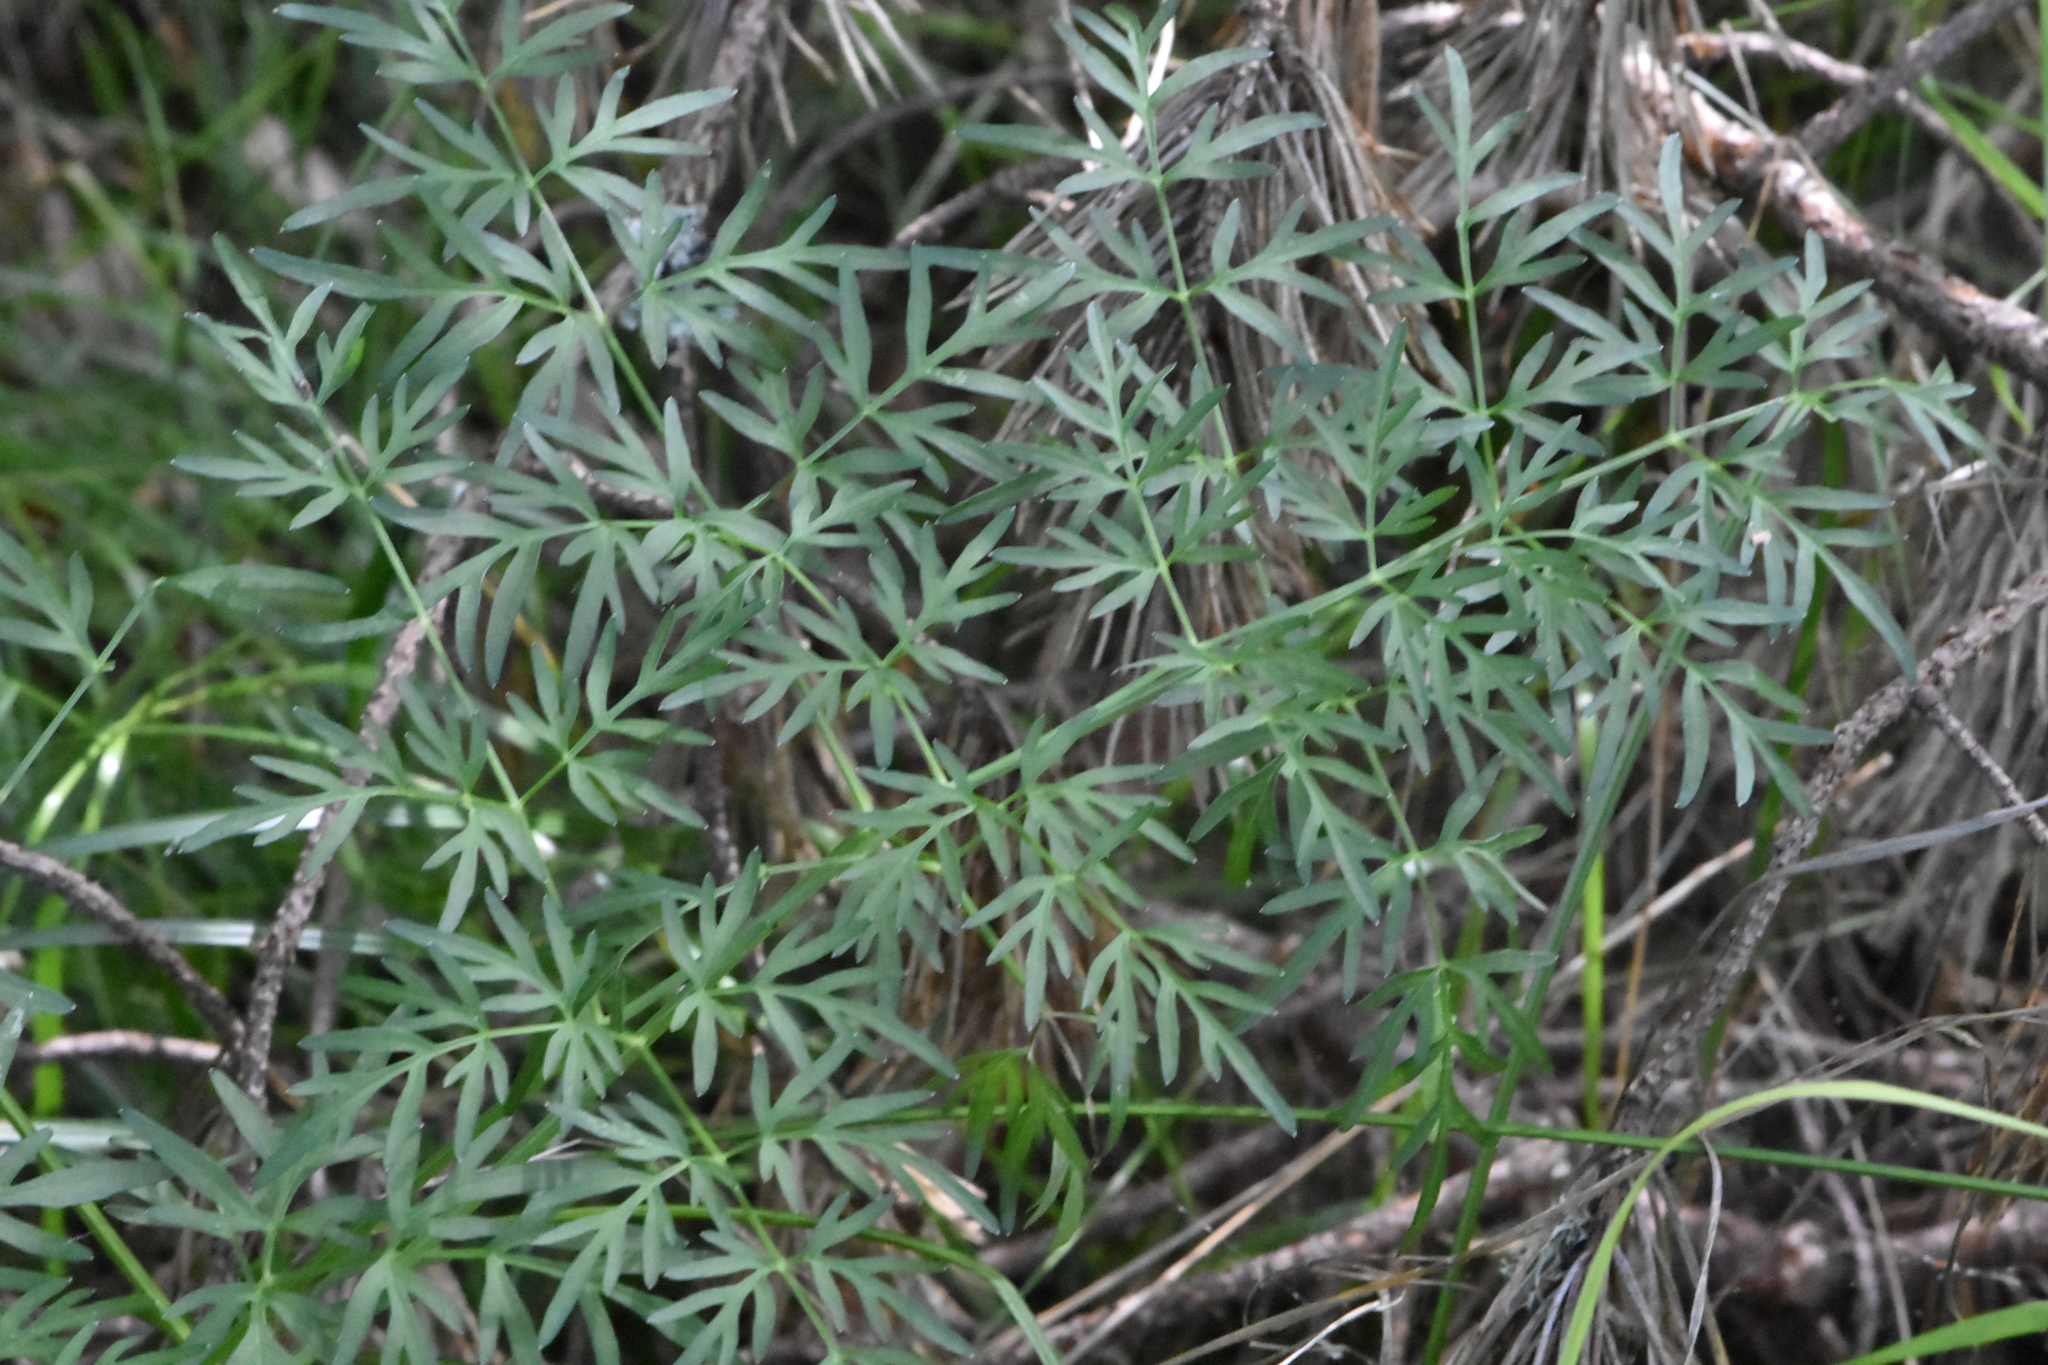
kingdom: Plantae
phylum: Tracheophyta
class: Magnoliopsida
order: Apiales
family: Apiaceae
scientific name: Apiaceae
